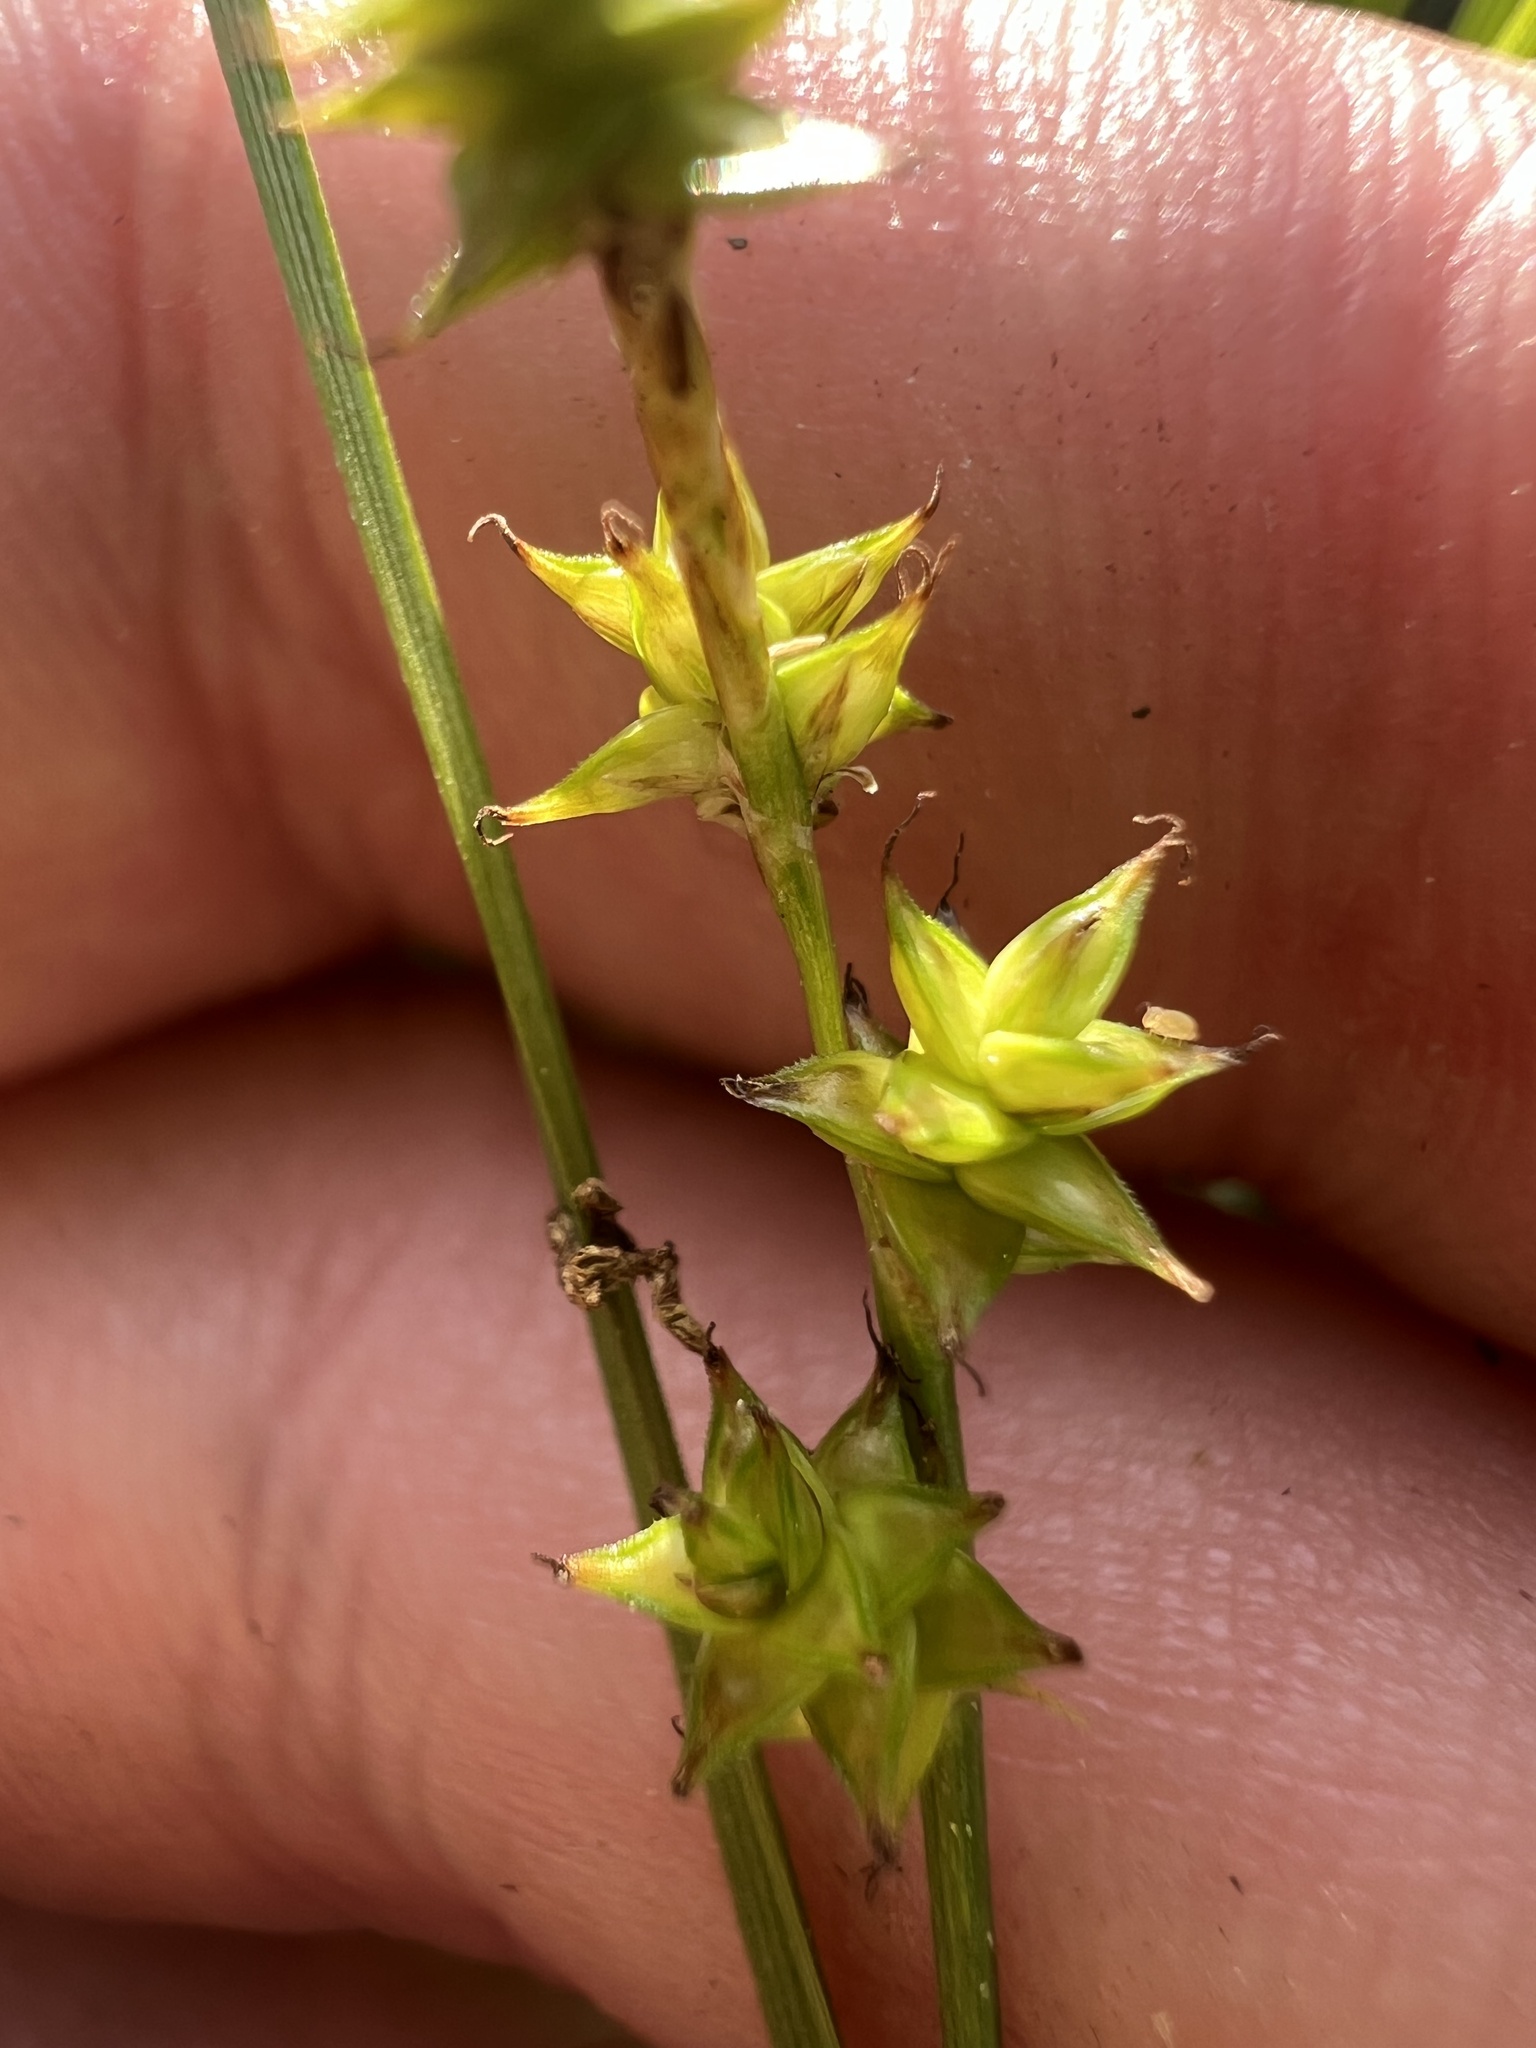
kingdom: Plantae
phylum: Tracheophyta
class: Liliopsida
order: Poales
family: Cyperaceae
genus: Carex
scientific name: Carex interior
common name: Inland sedge
